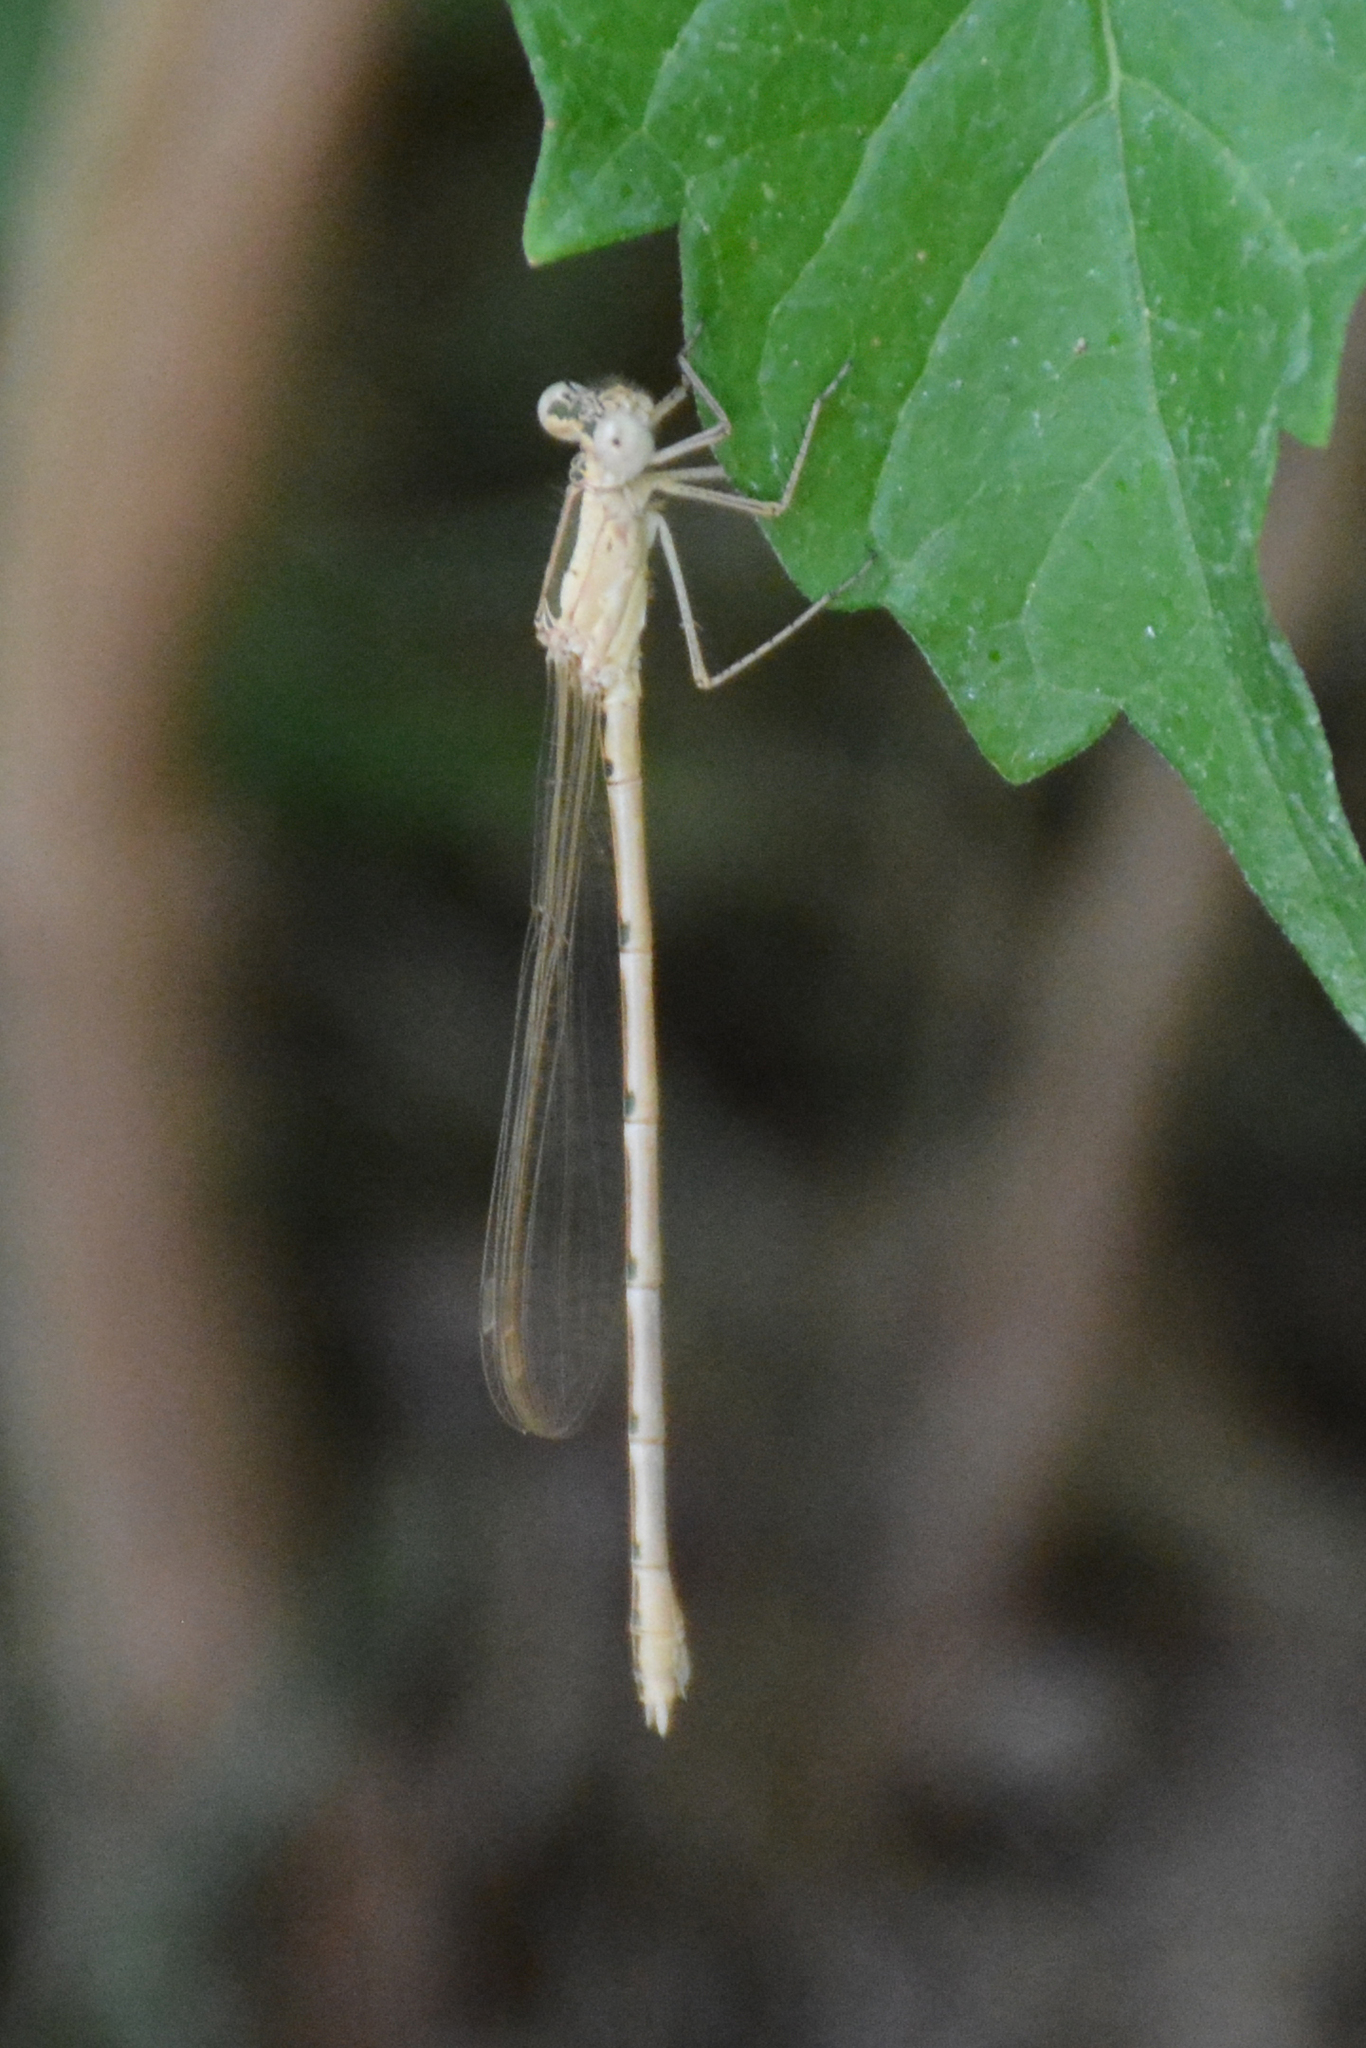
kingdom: Animalia
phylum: Arthropoda
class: Insecta
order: Odonata
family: Lestidae
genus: Sympecma
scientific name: Sympecma paedisca
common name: Siberian winter damsel
